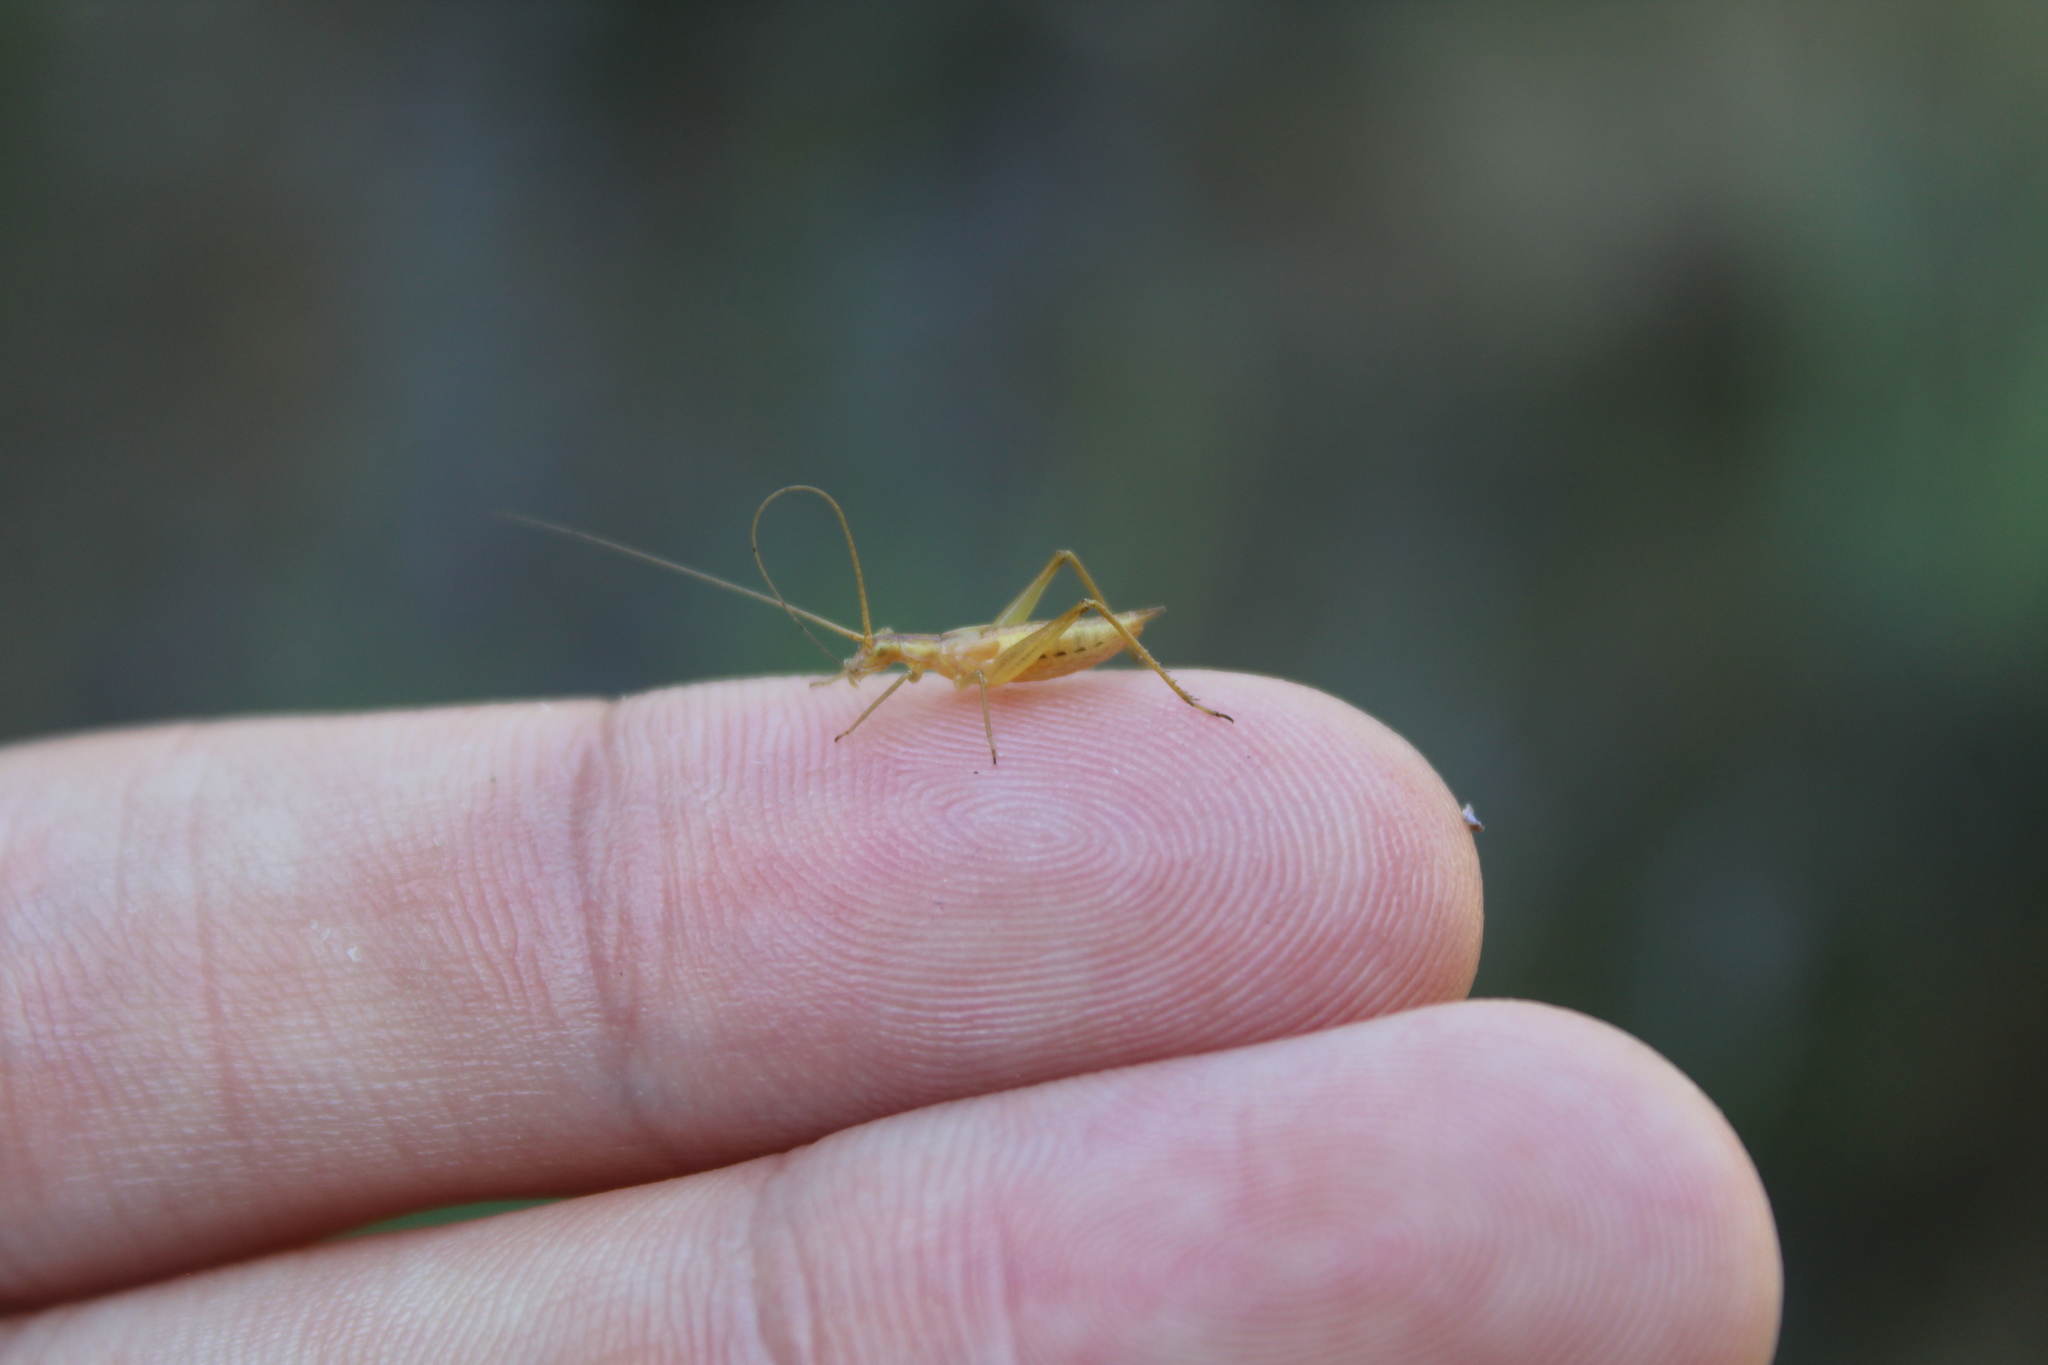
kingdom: Animalia
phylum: Arthropoda
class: Insecta
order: Orthoptera
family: Gryllidae
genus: Oecanthus
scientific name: Oecanthus pellucens
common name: Tree-cricket
